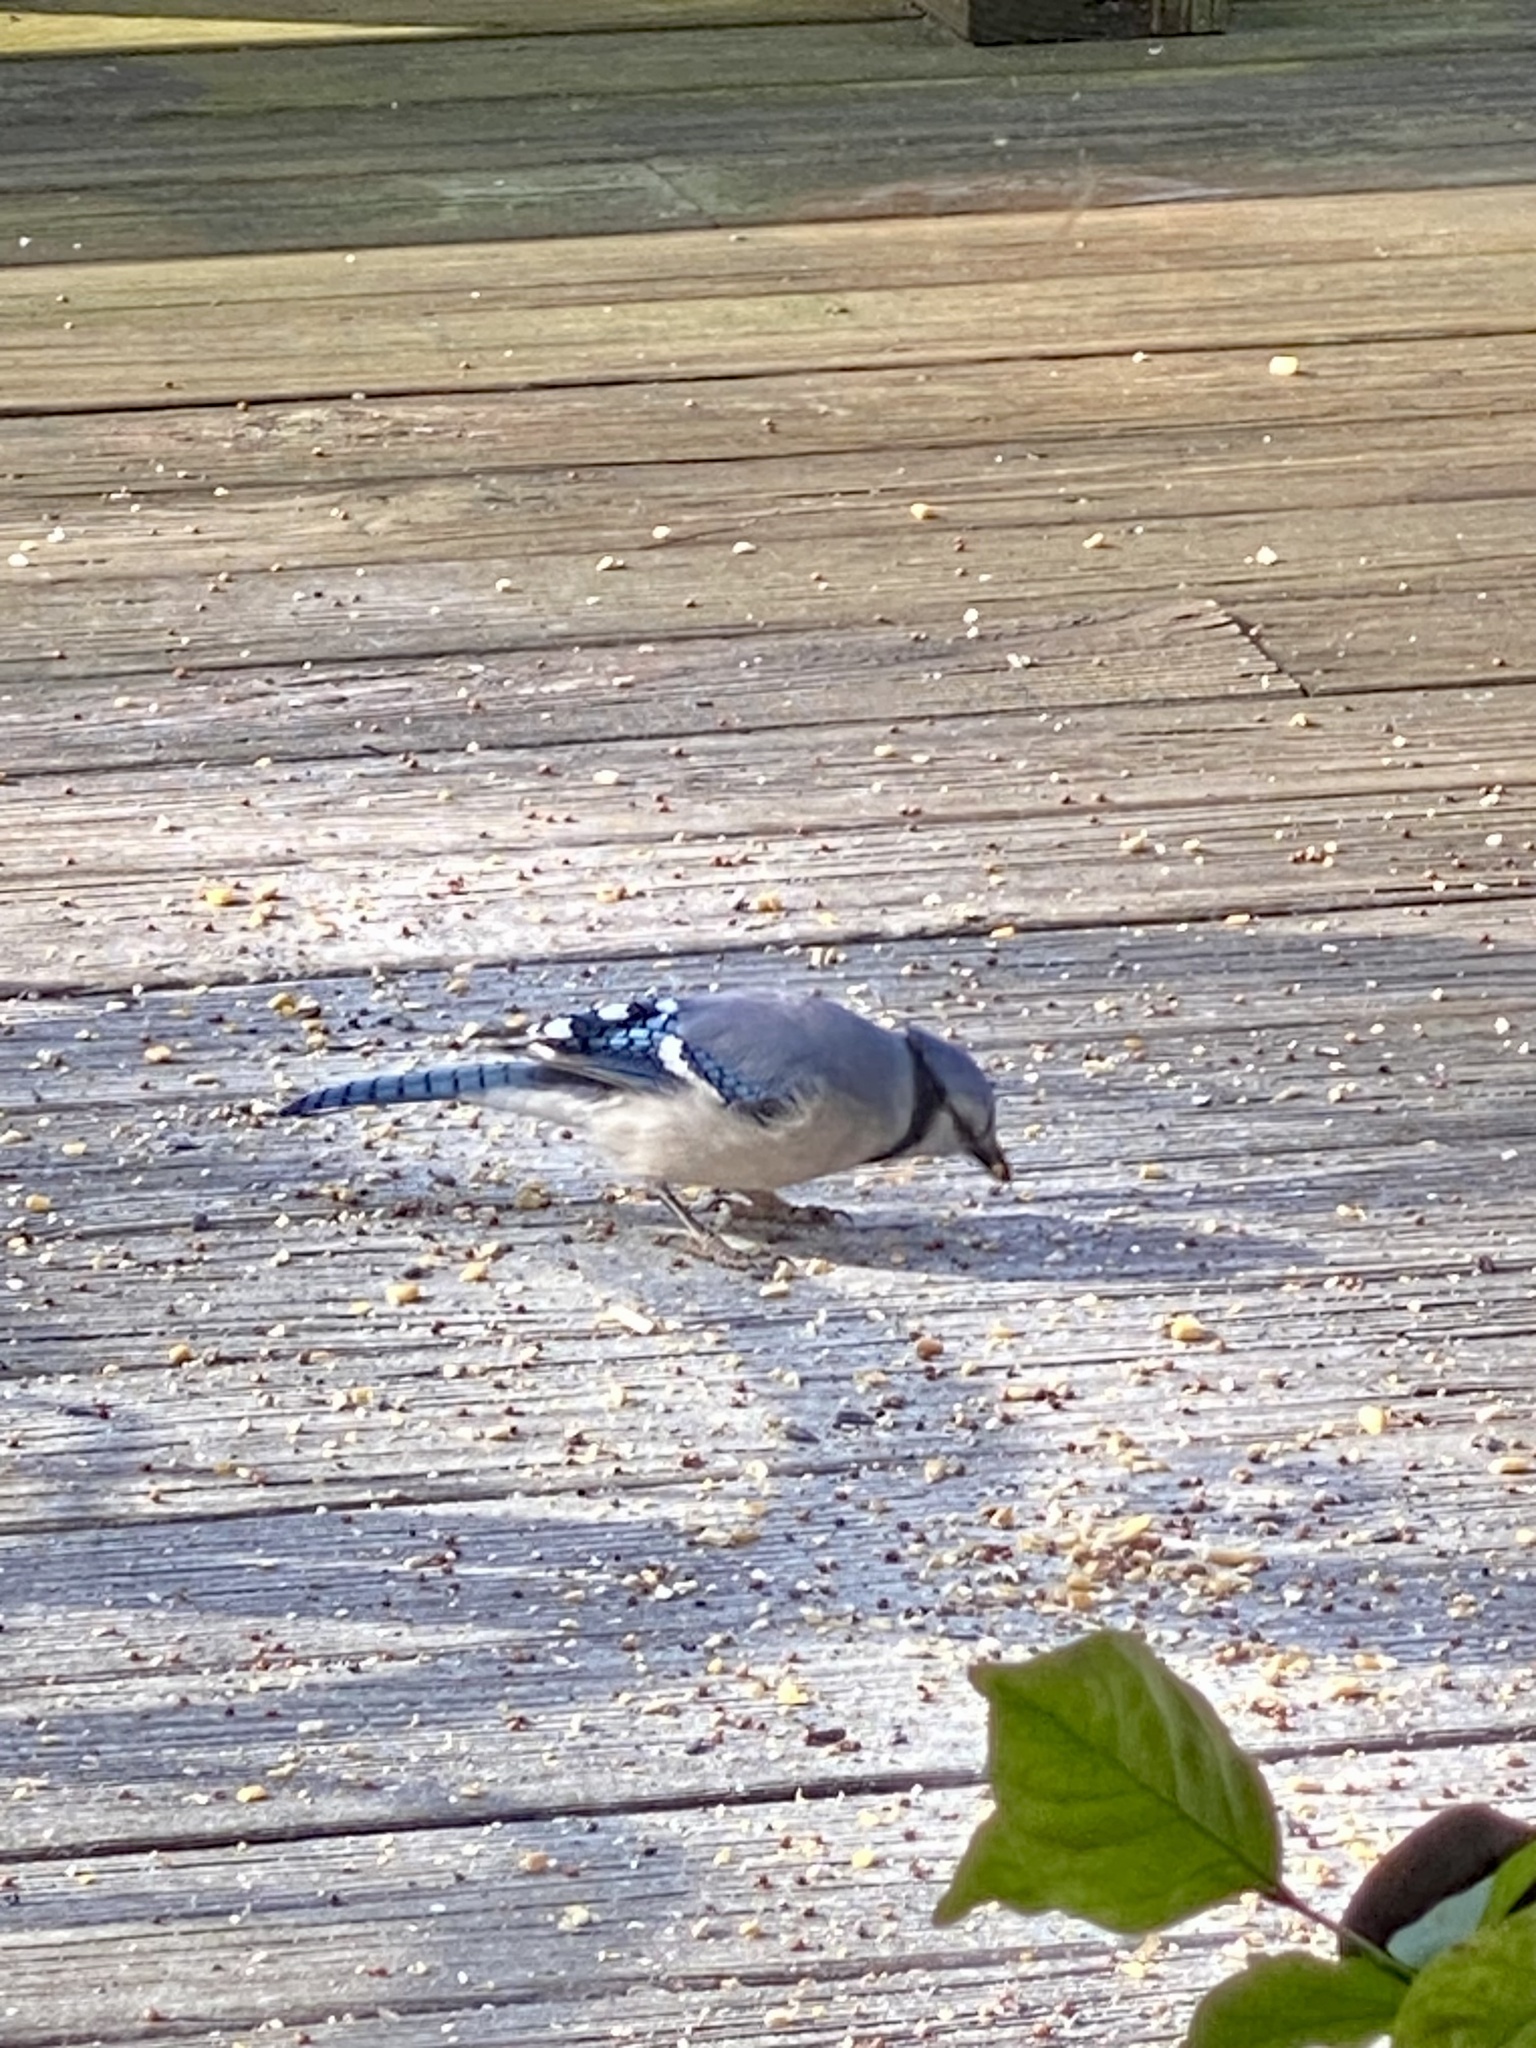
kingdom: Animalia
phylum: Chordata
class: Aves
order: Passeriformes
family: Corvidae
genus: Cyanocitta
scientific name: Cyanocitta cristata
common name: Blue jay
